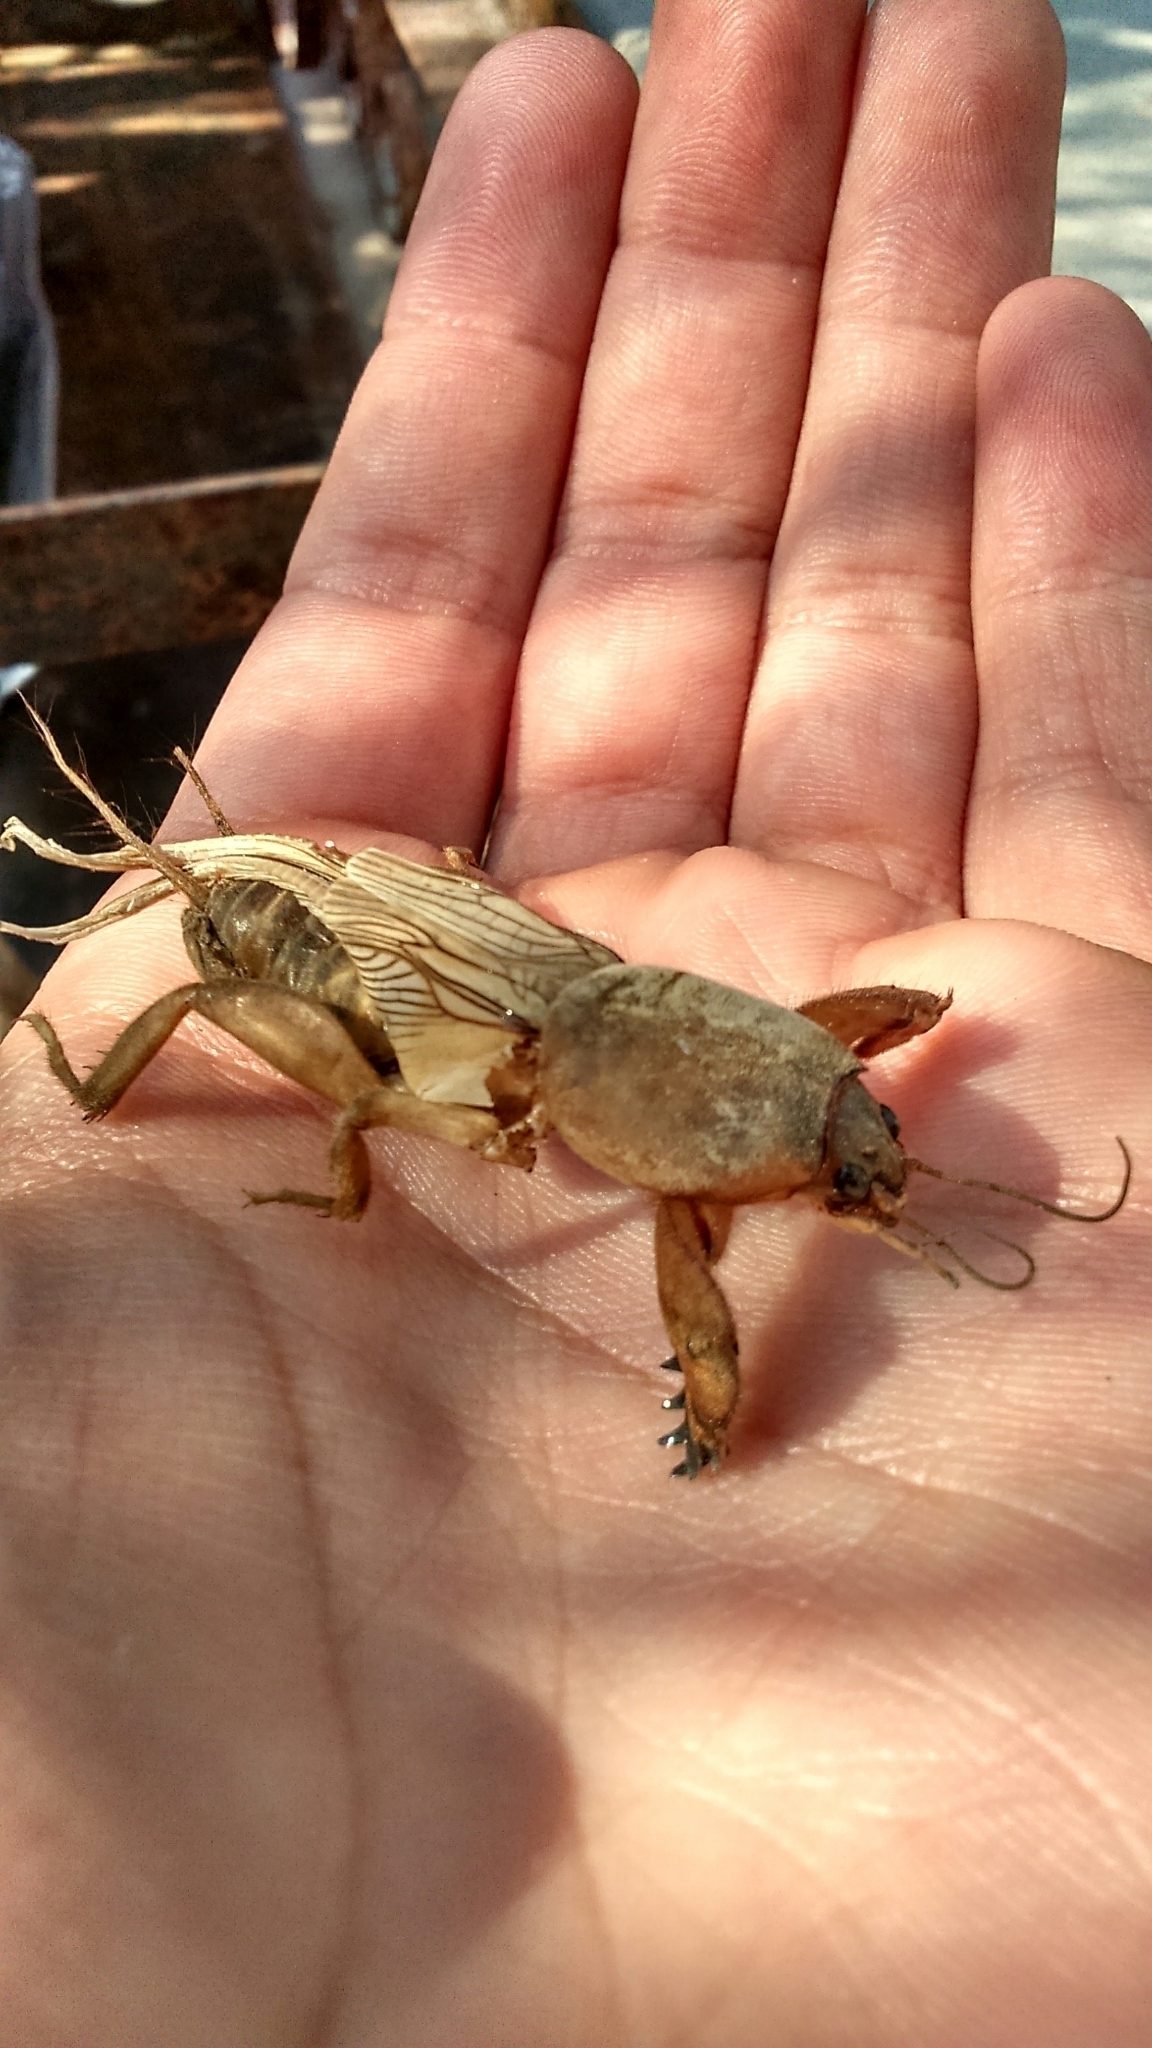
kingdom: Animalia
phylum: Arthropoda
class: Insecta
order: Orthoptera
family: Gryllotalpidae
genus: Gryllotalpa
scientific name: Gryllotalpa gryllotalpa
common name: European mole cricket
